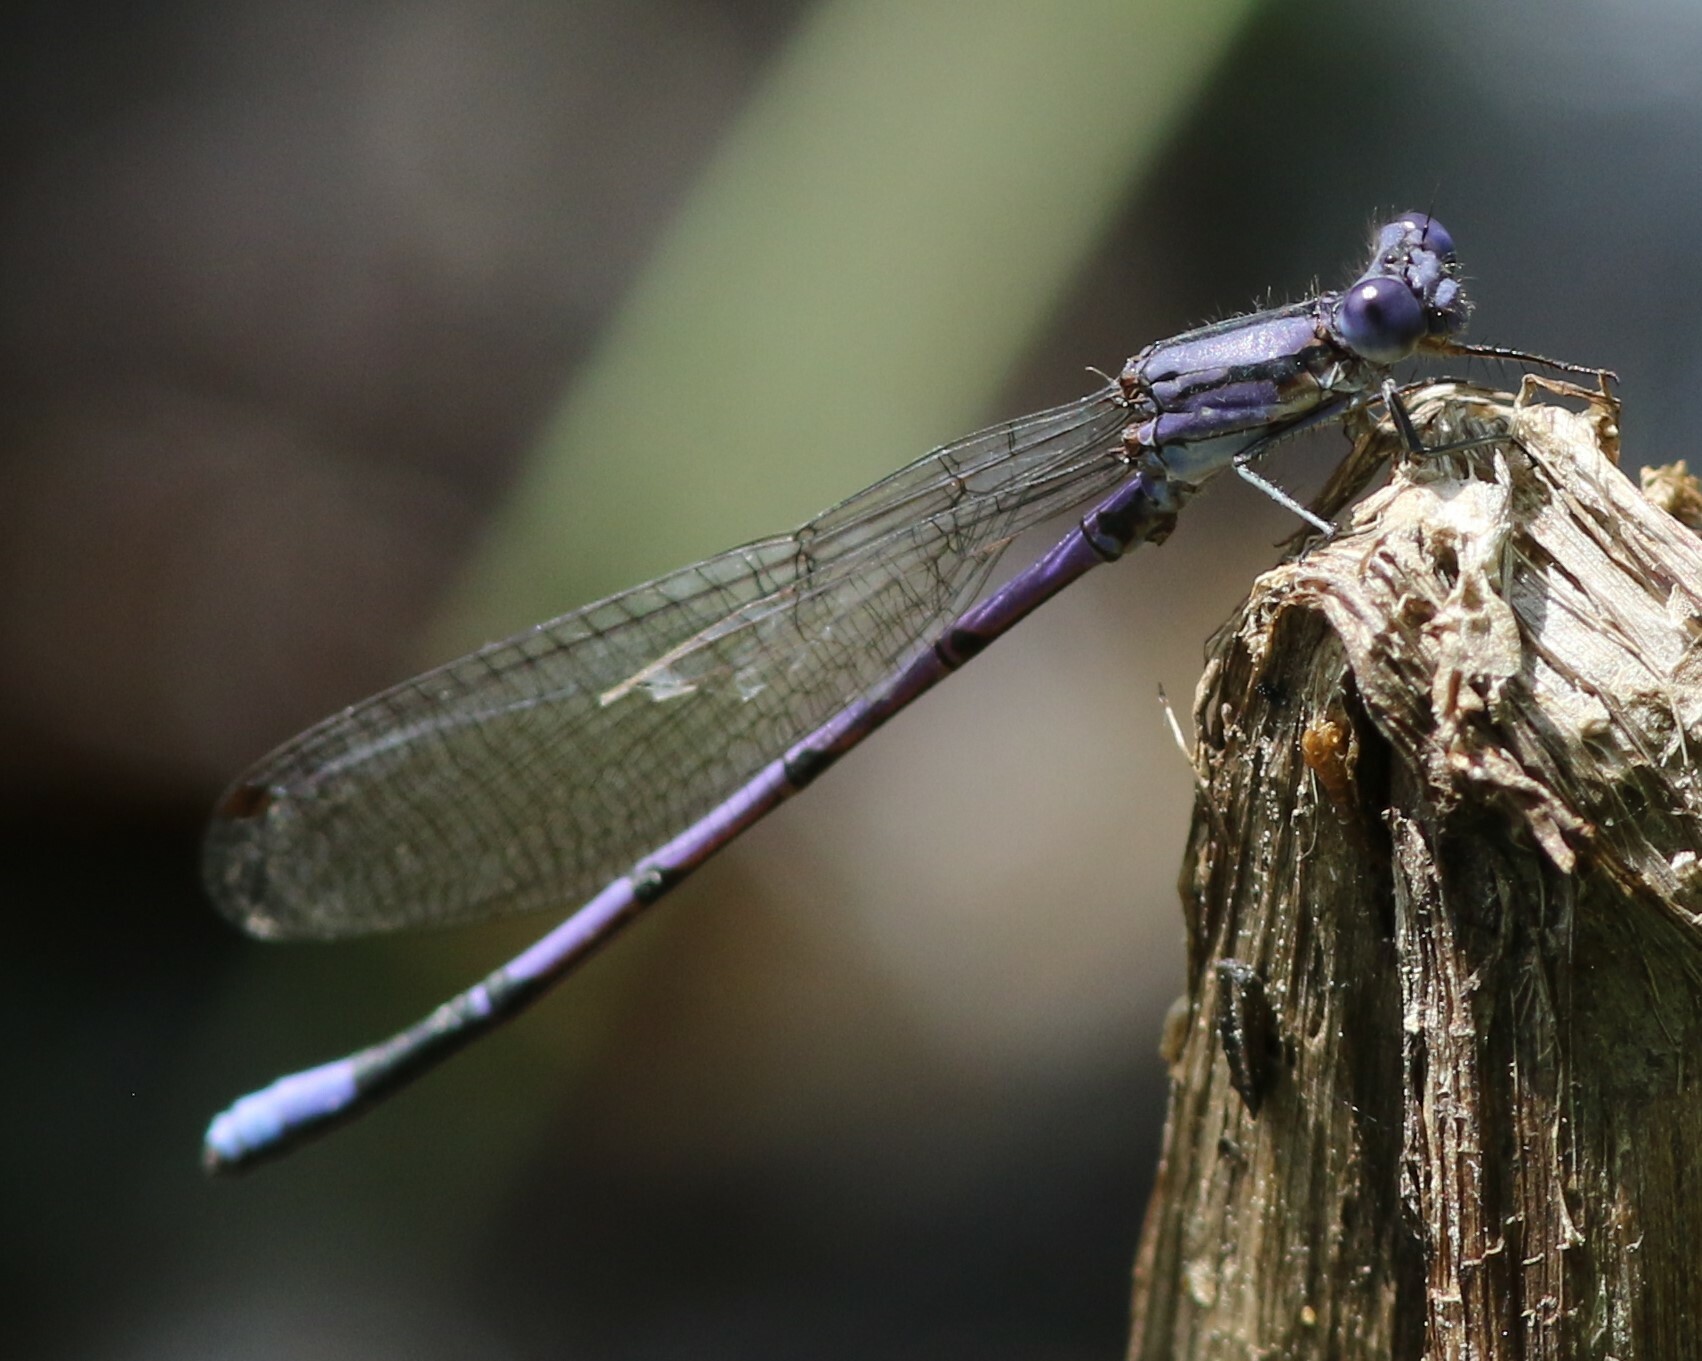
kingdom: Animalia
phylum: Arthropoda
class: Insecta
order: Odonata
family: Coenagrionidae
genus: Argia
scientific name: Argia fumipennis
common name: Variable dancer
